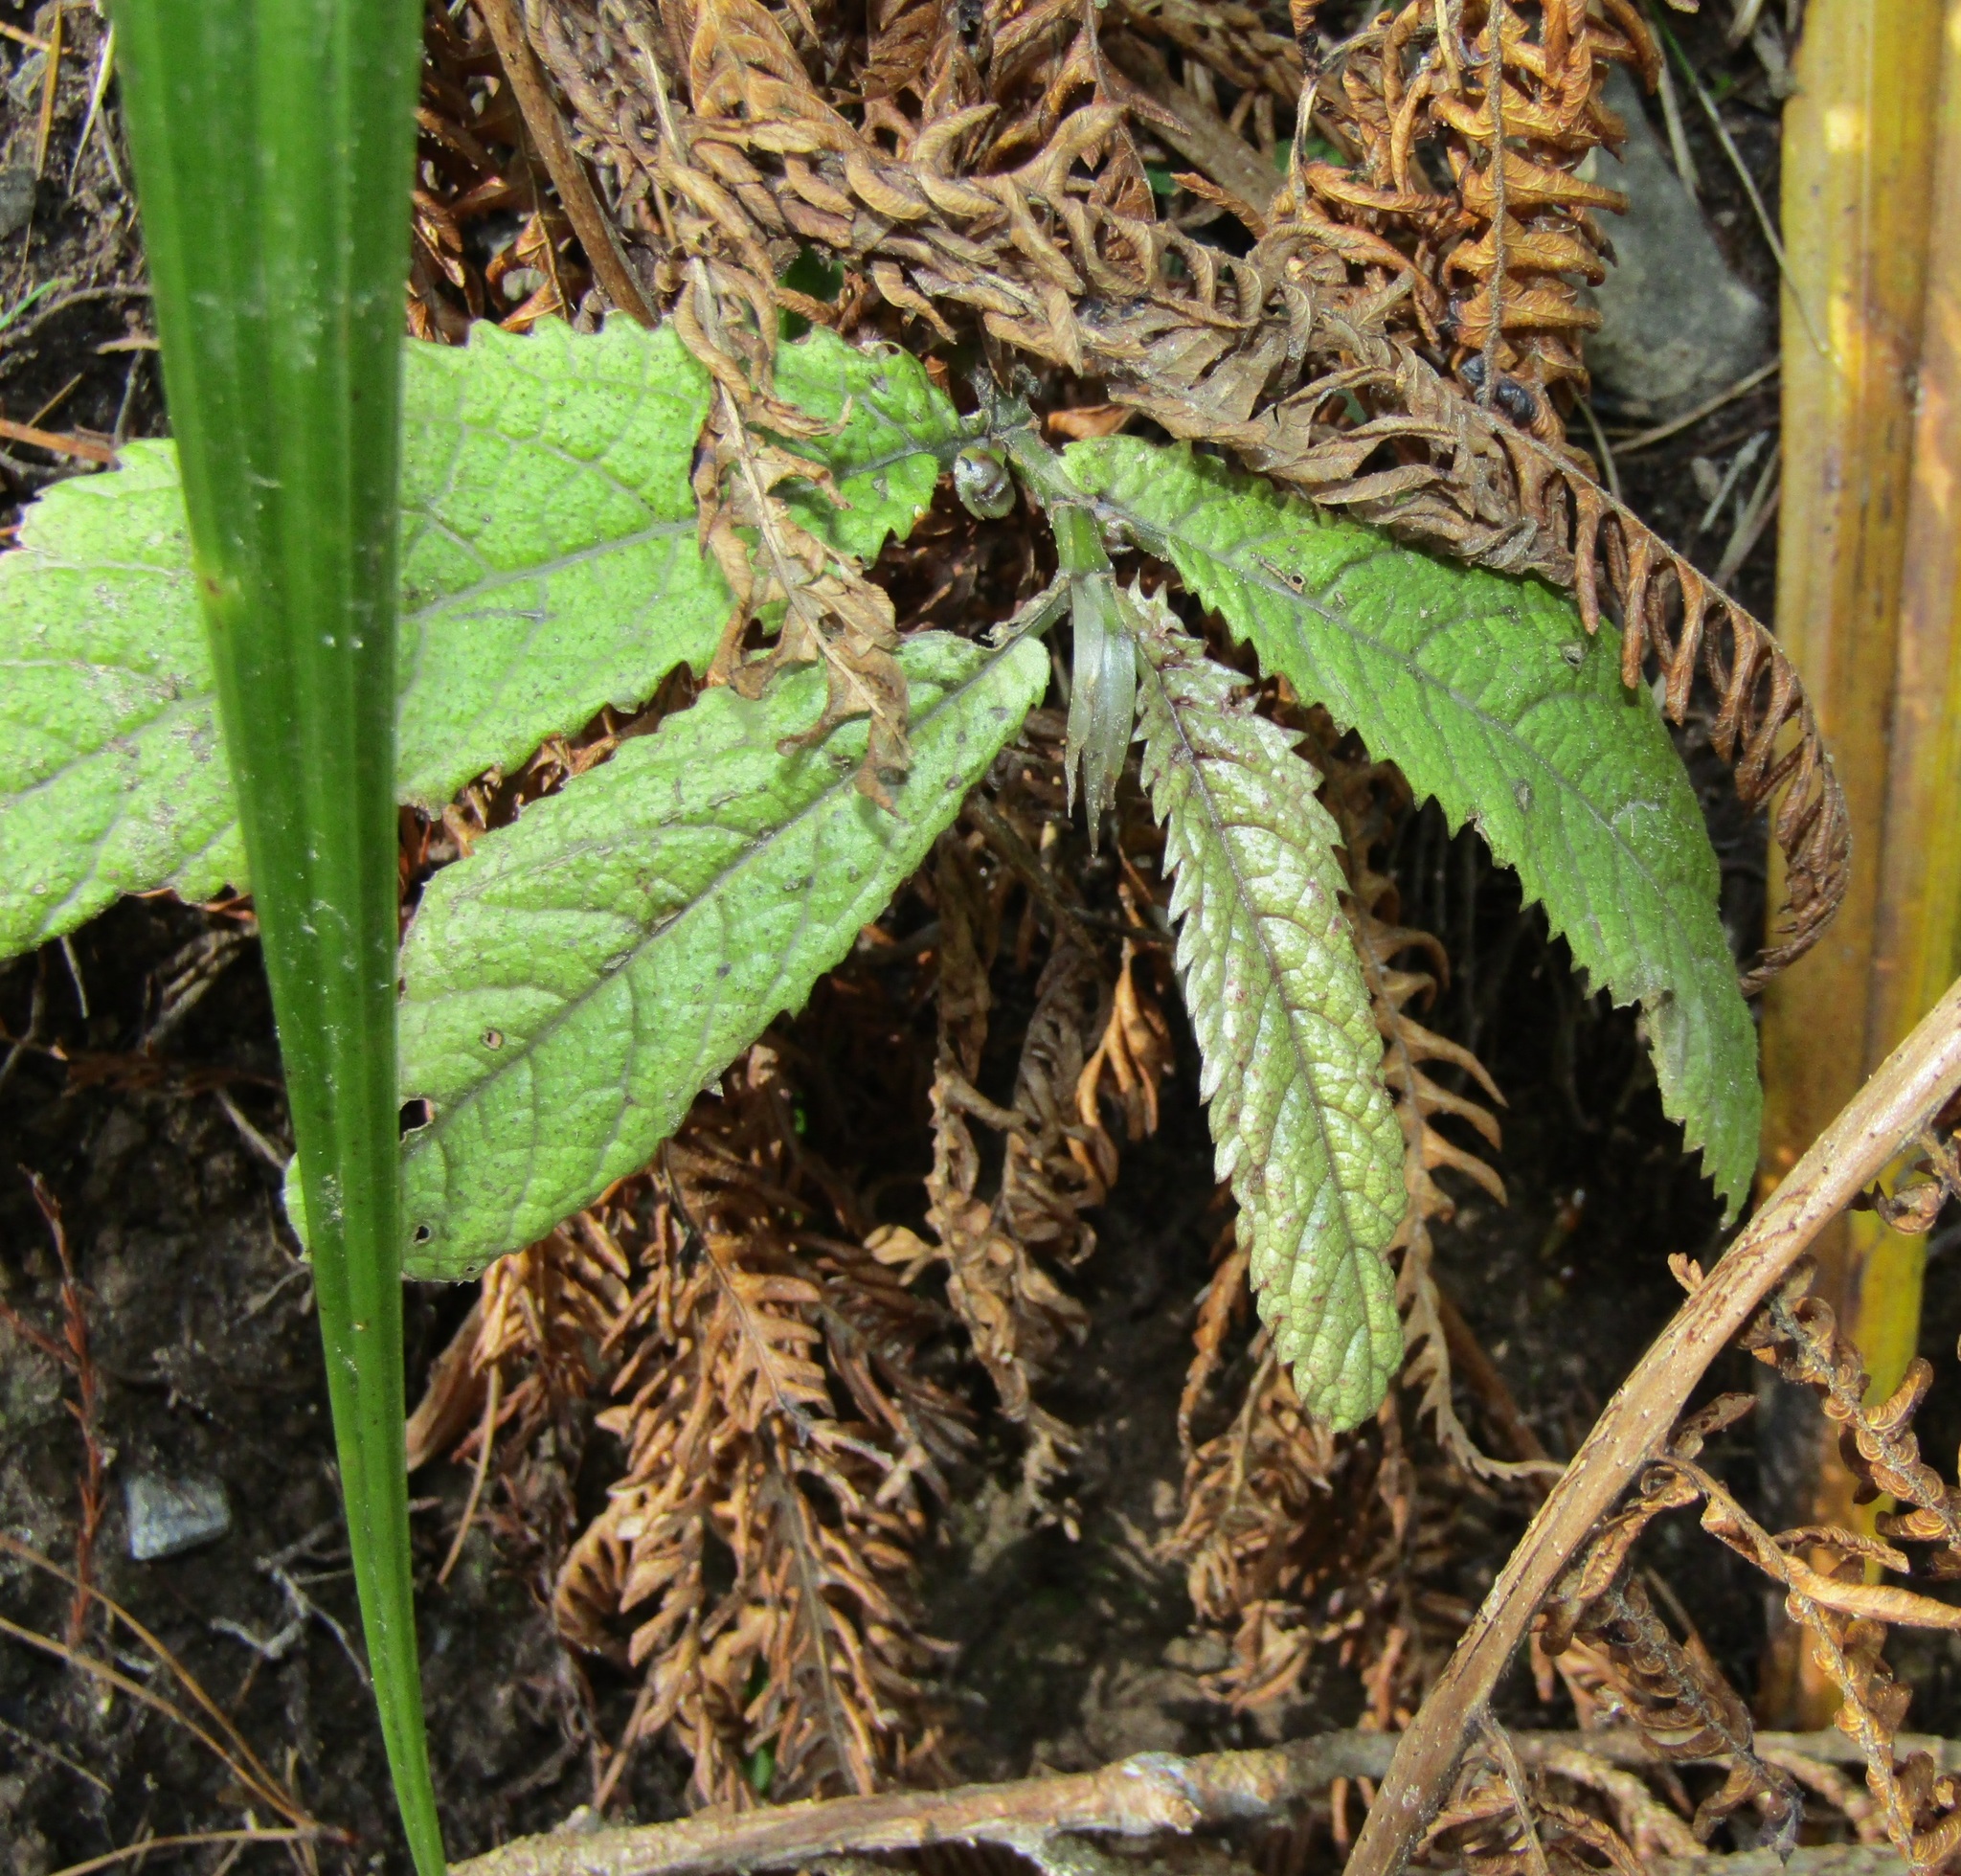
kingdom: Plantae
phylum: Tracheophyta
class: Magnoliopsida
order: Rosales
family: Urticaceae
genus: Elatostema
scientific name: Elatostema rugosum
